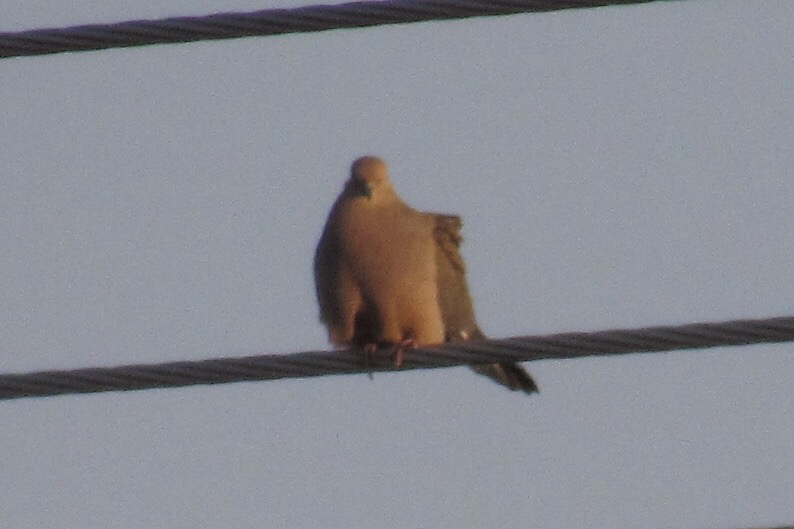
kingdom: Animalia
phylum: Chordata
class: Aves
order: Columbiformes
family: Columbidae
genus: Zenaida
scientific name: Zenaida macroura
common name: Mourning dove
